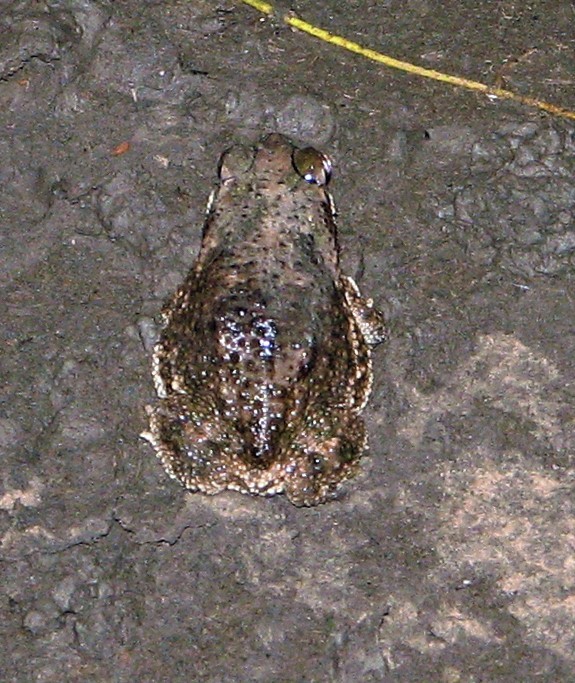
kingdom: Animalia
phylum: Chordata
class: Amphibia
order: Anura
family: Bufonidae
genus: Rhinella
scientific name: Rhinella major
